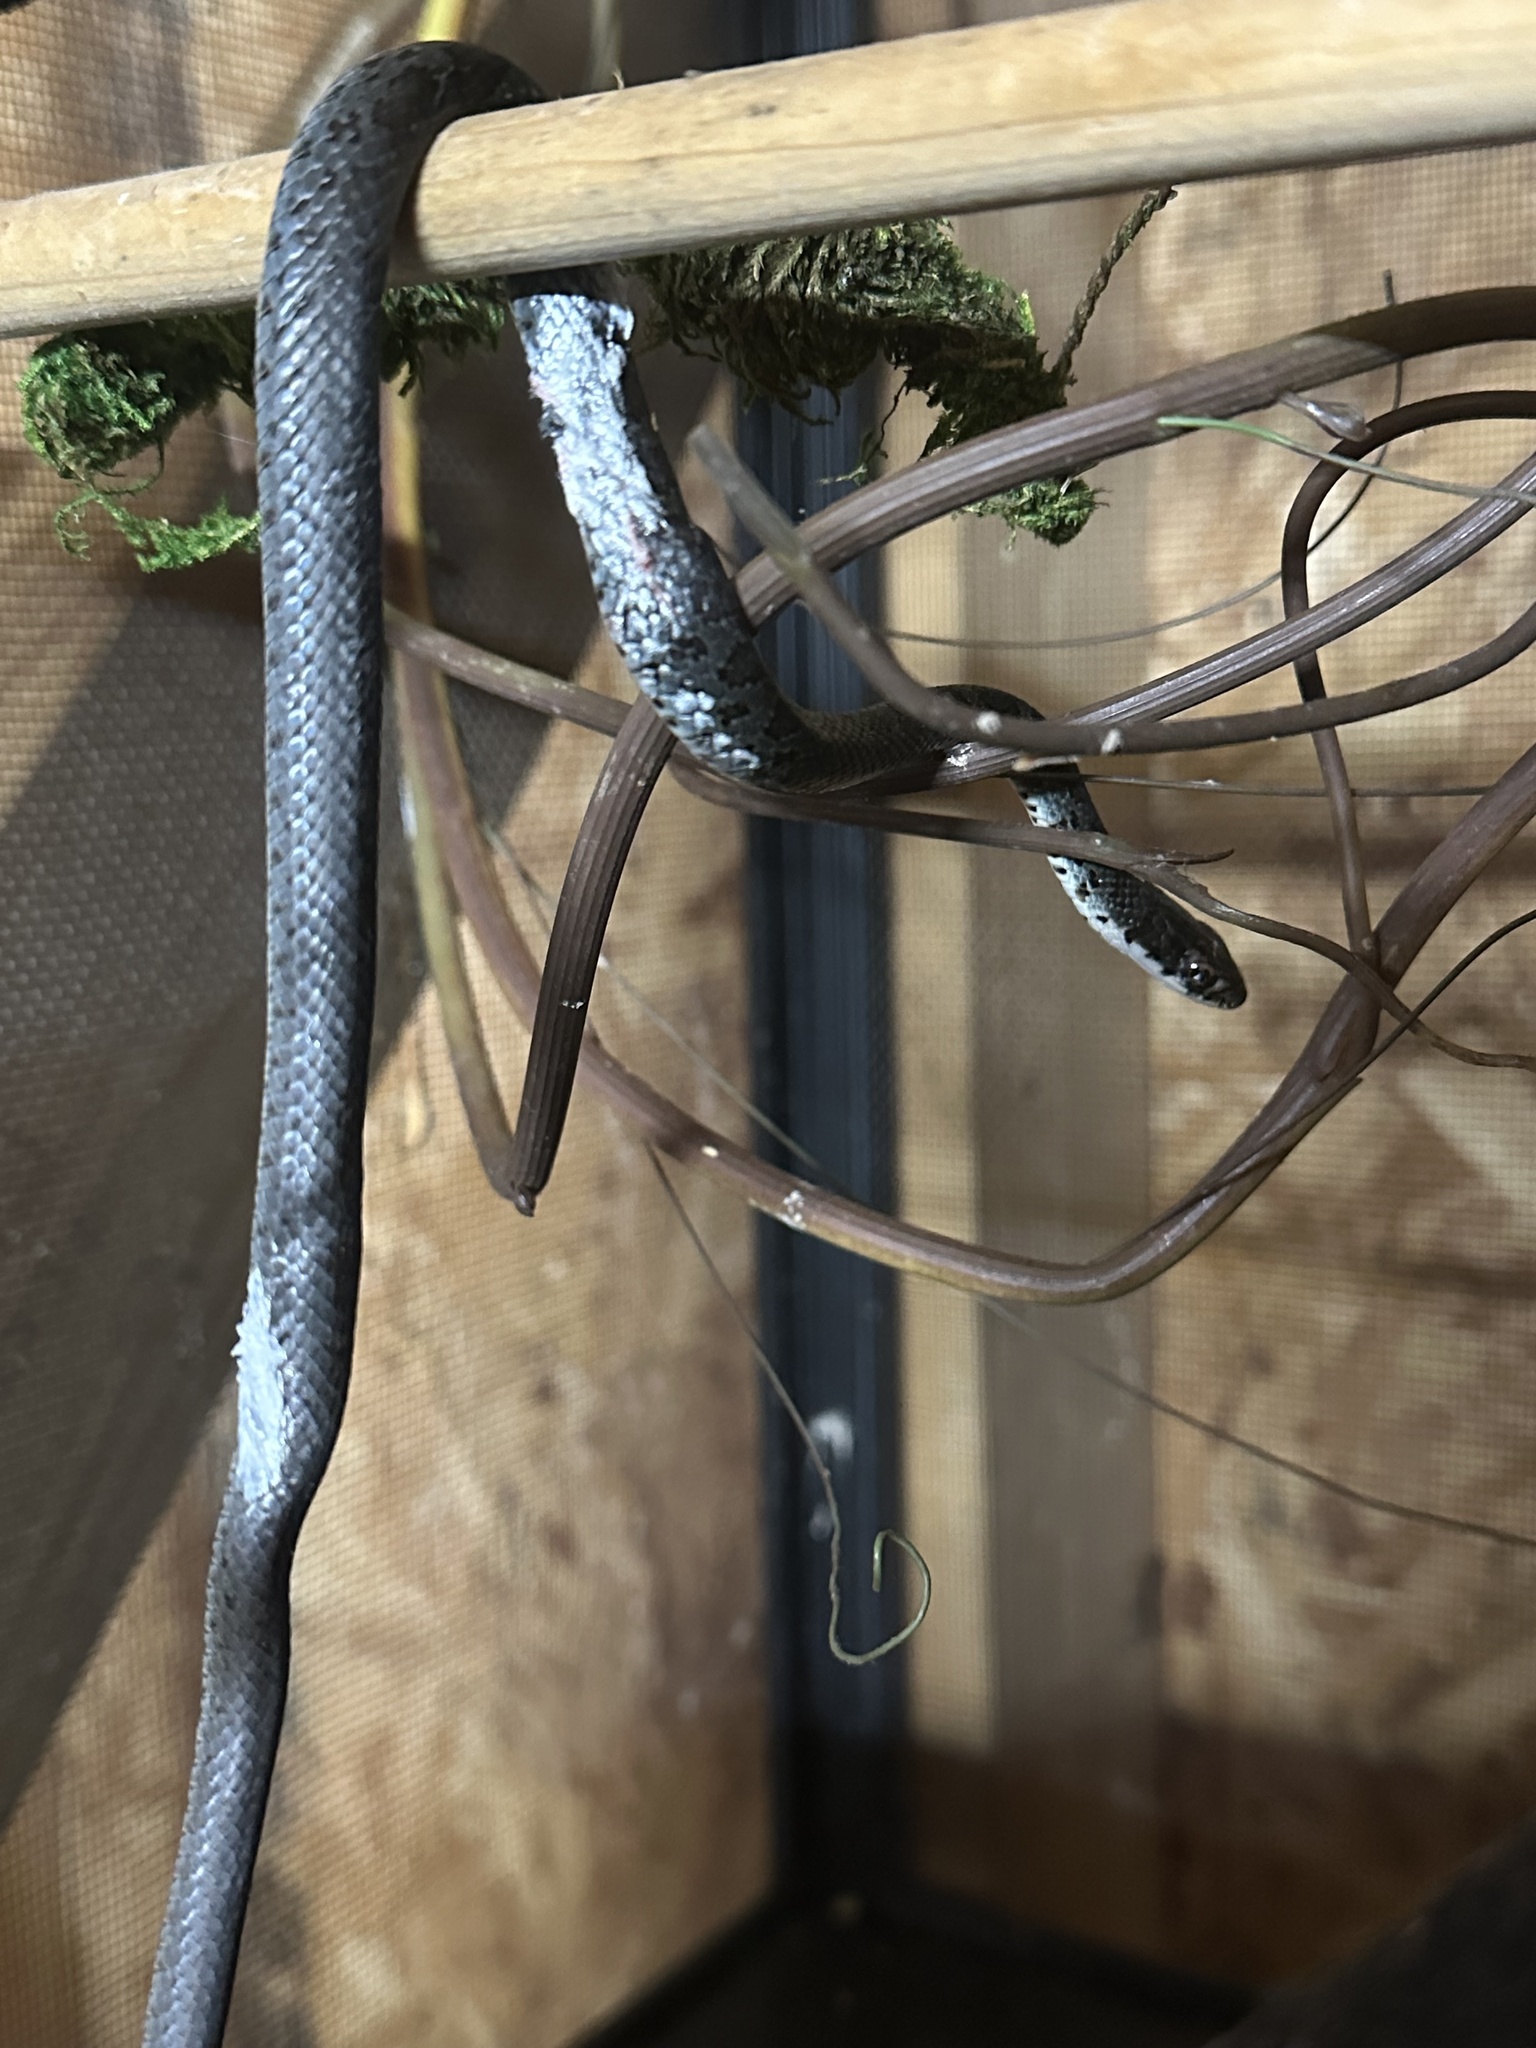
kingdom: Animalia
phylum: Chordata
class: Squamata
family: Colubridae
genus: Coluber
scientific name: Coluber constrictor
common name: Eastern racer
